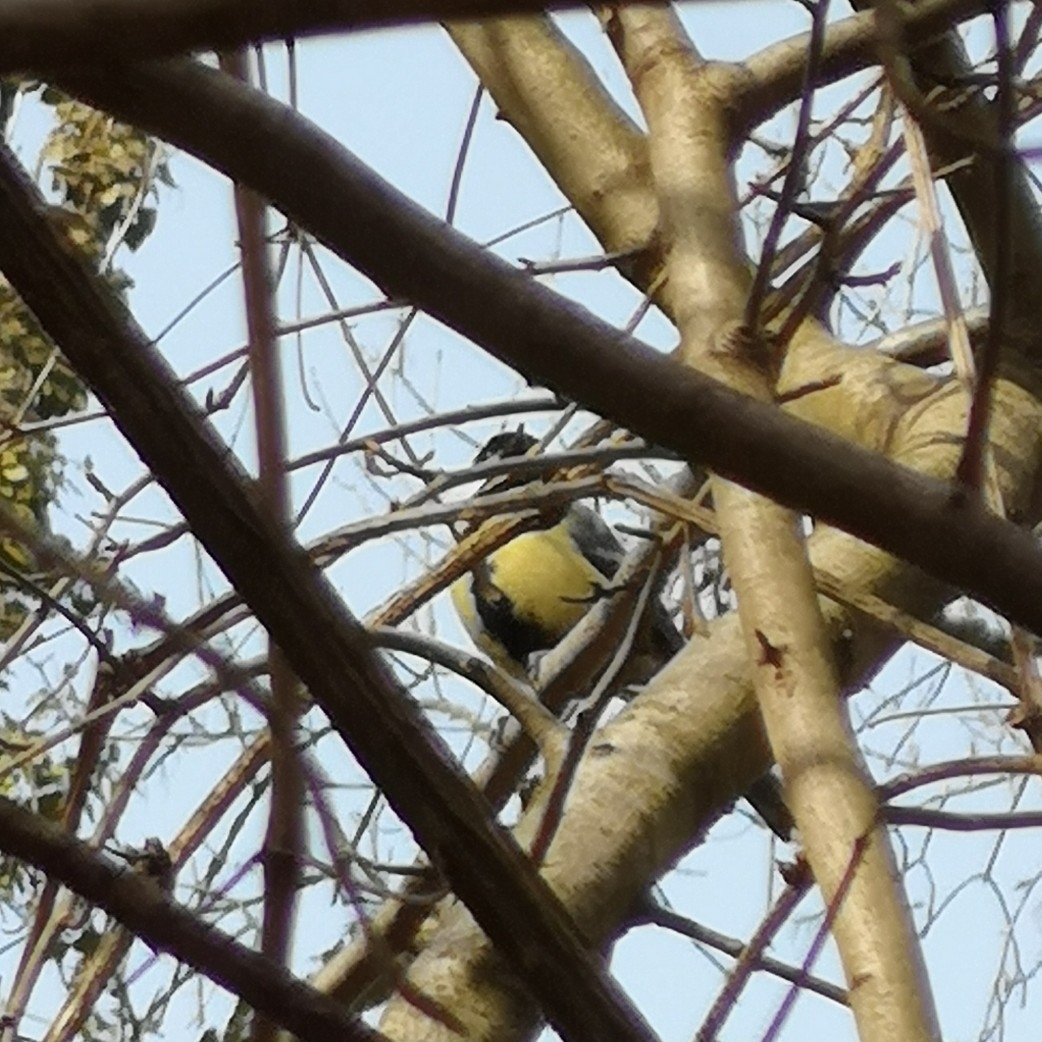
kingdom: Animalia
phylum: Chordata
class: Aves
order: Passeriformes
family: Paridae
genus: Parus
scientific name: Parus major
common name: Great tit
